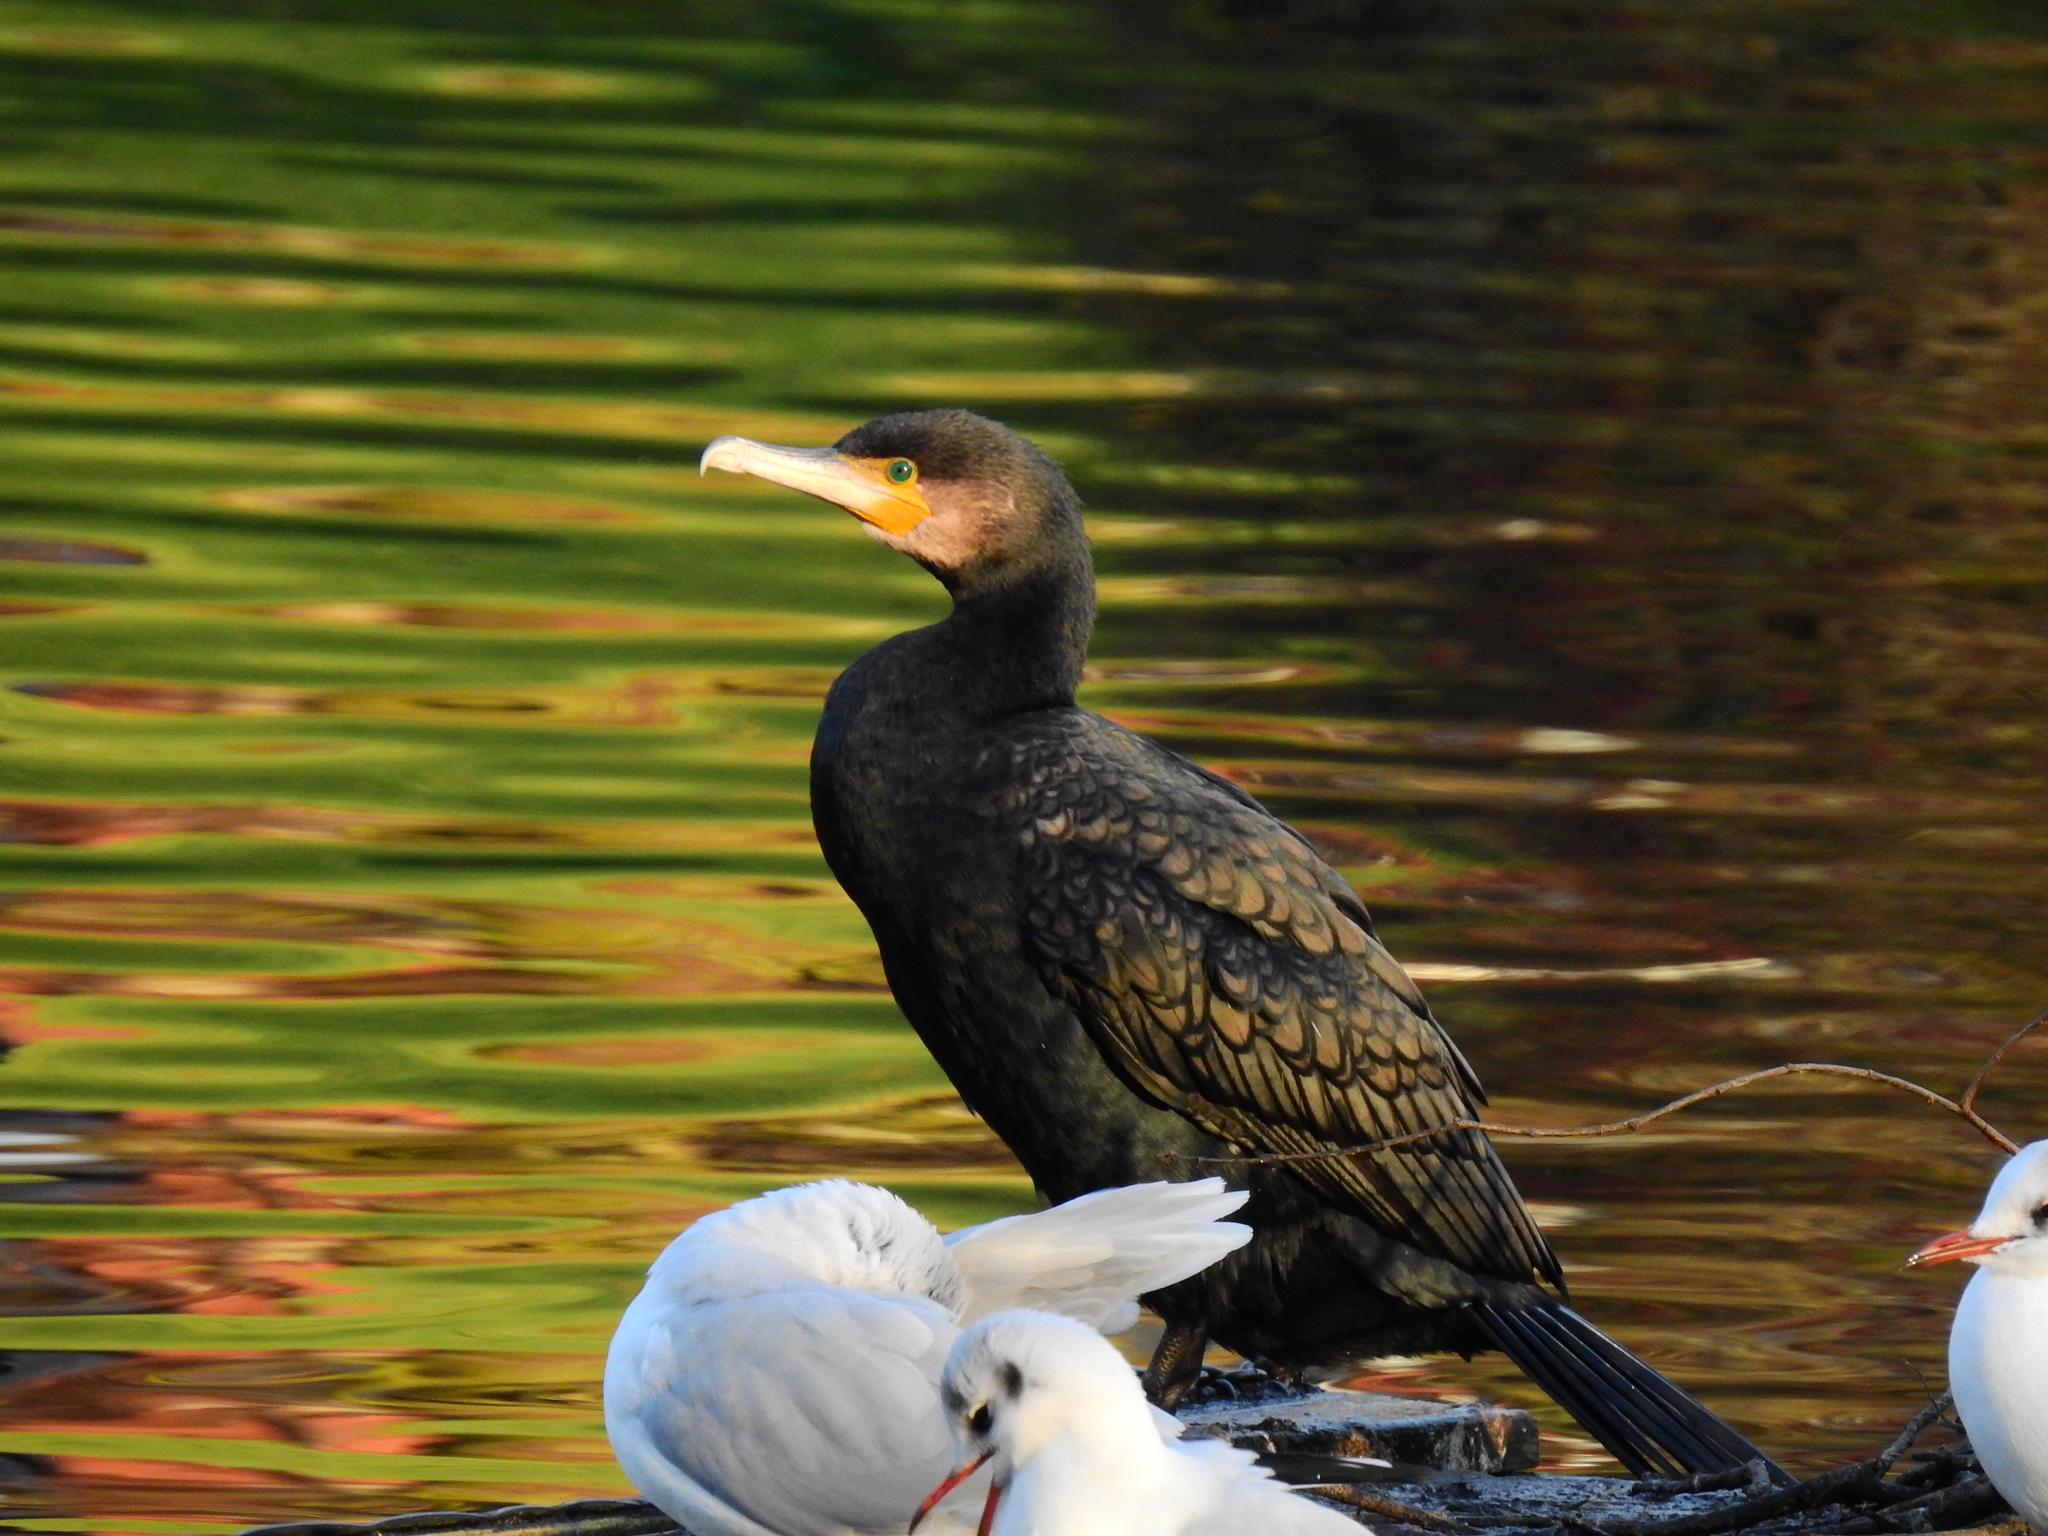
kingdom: Animalia
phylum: Chordata
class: Aves
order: Suliformes
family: Phalacrocoracidae
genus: Phalacrocorax
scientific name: Phalacrocorax carbo
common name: Great cormorant
